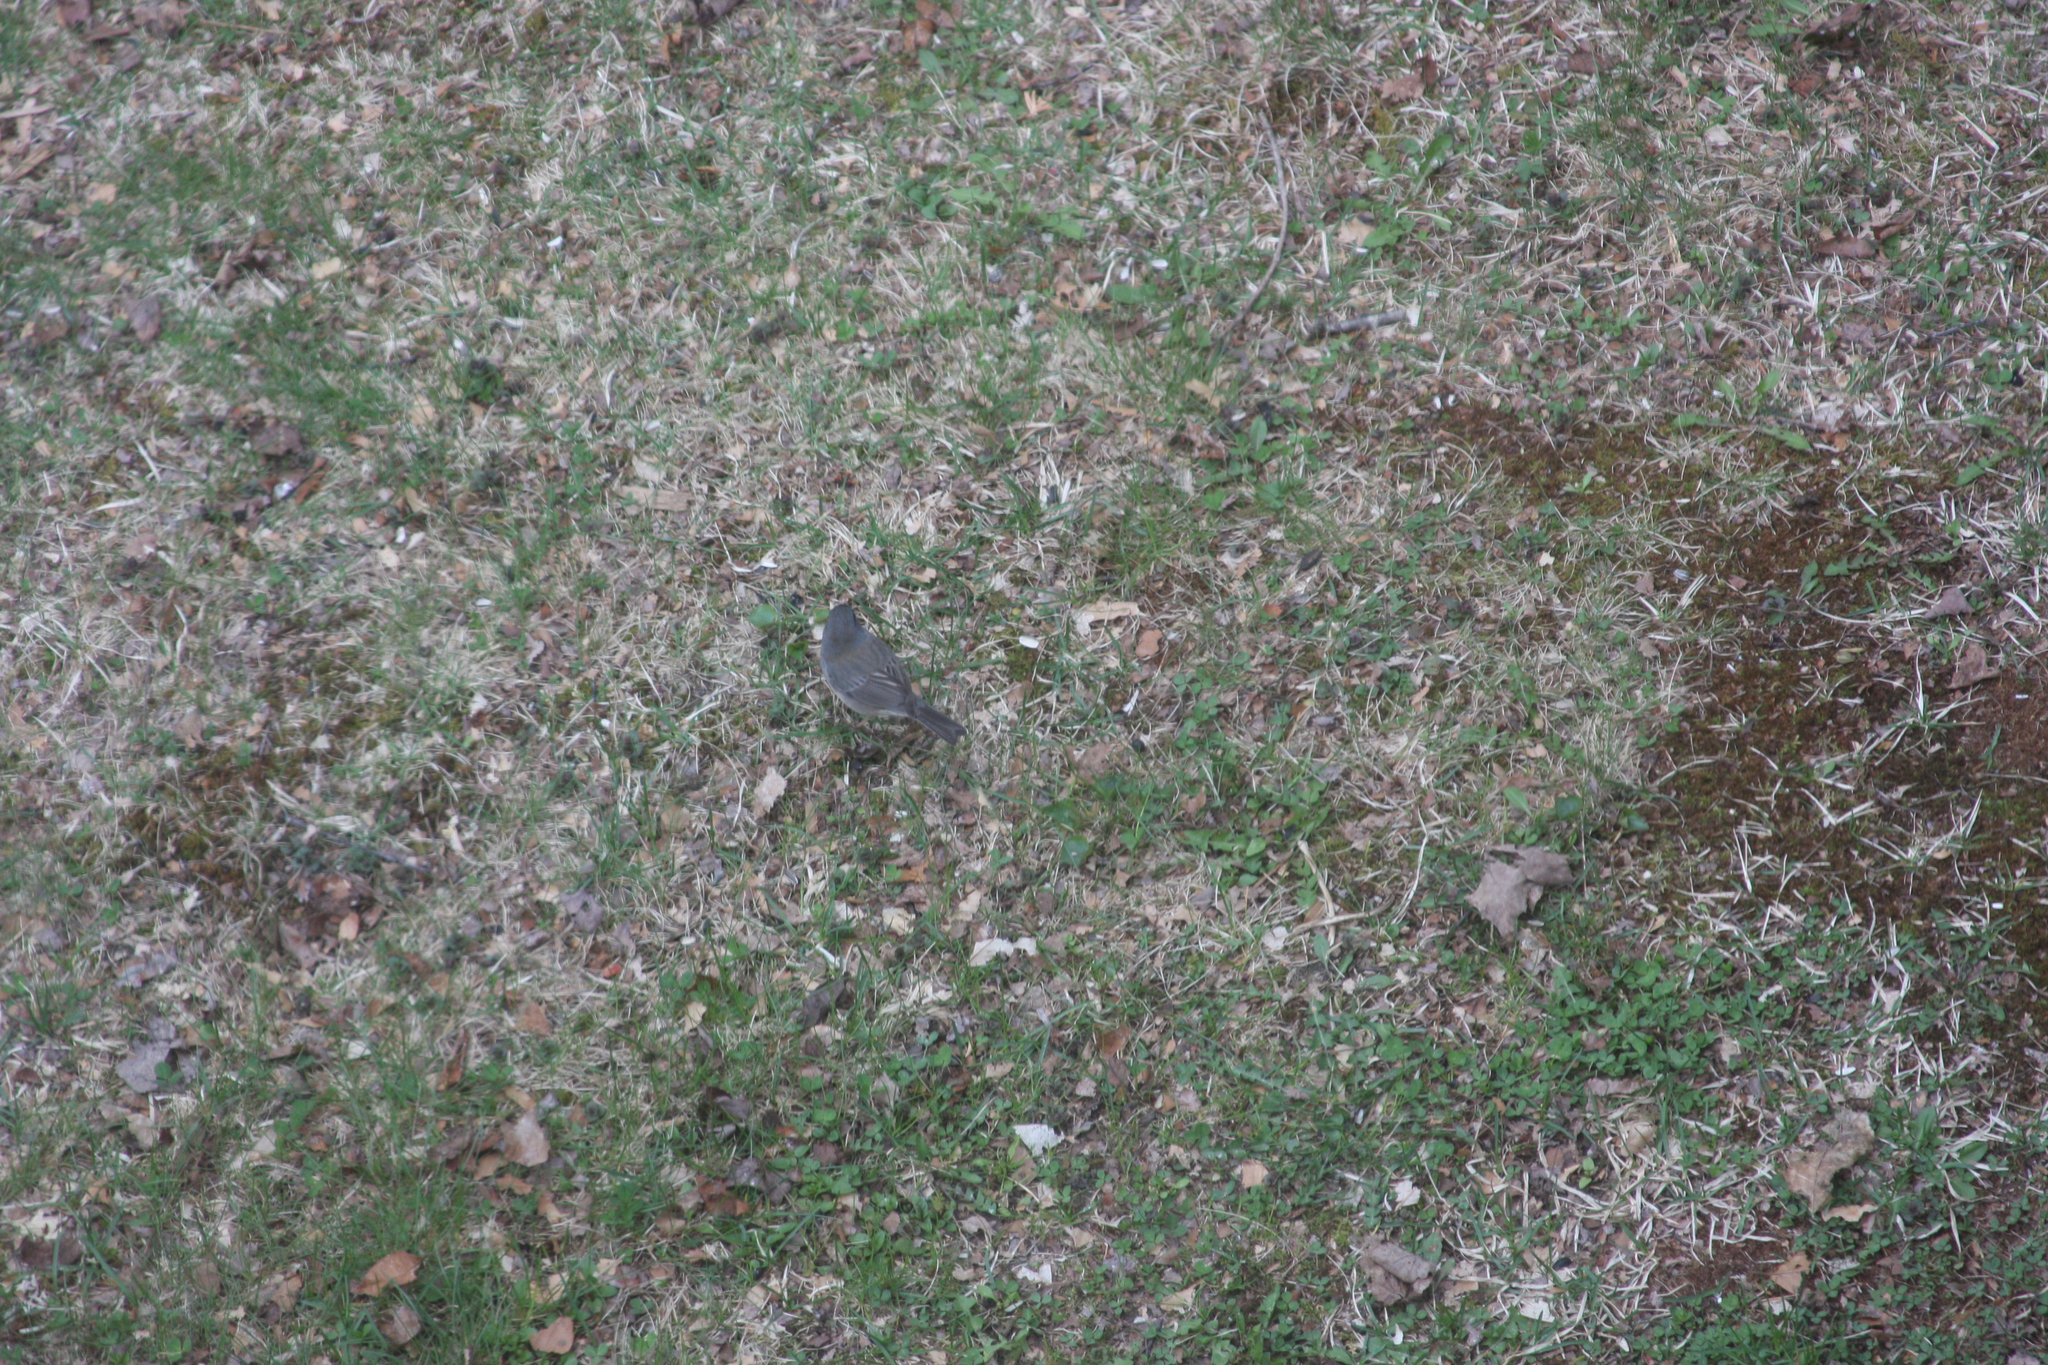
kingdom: Animalia
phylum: Chordata
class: Aves
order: Passeriformes
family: Turdidae
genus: Turdus
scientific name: Turdus migratorius
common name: American robin
